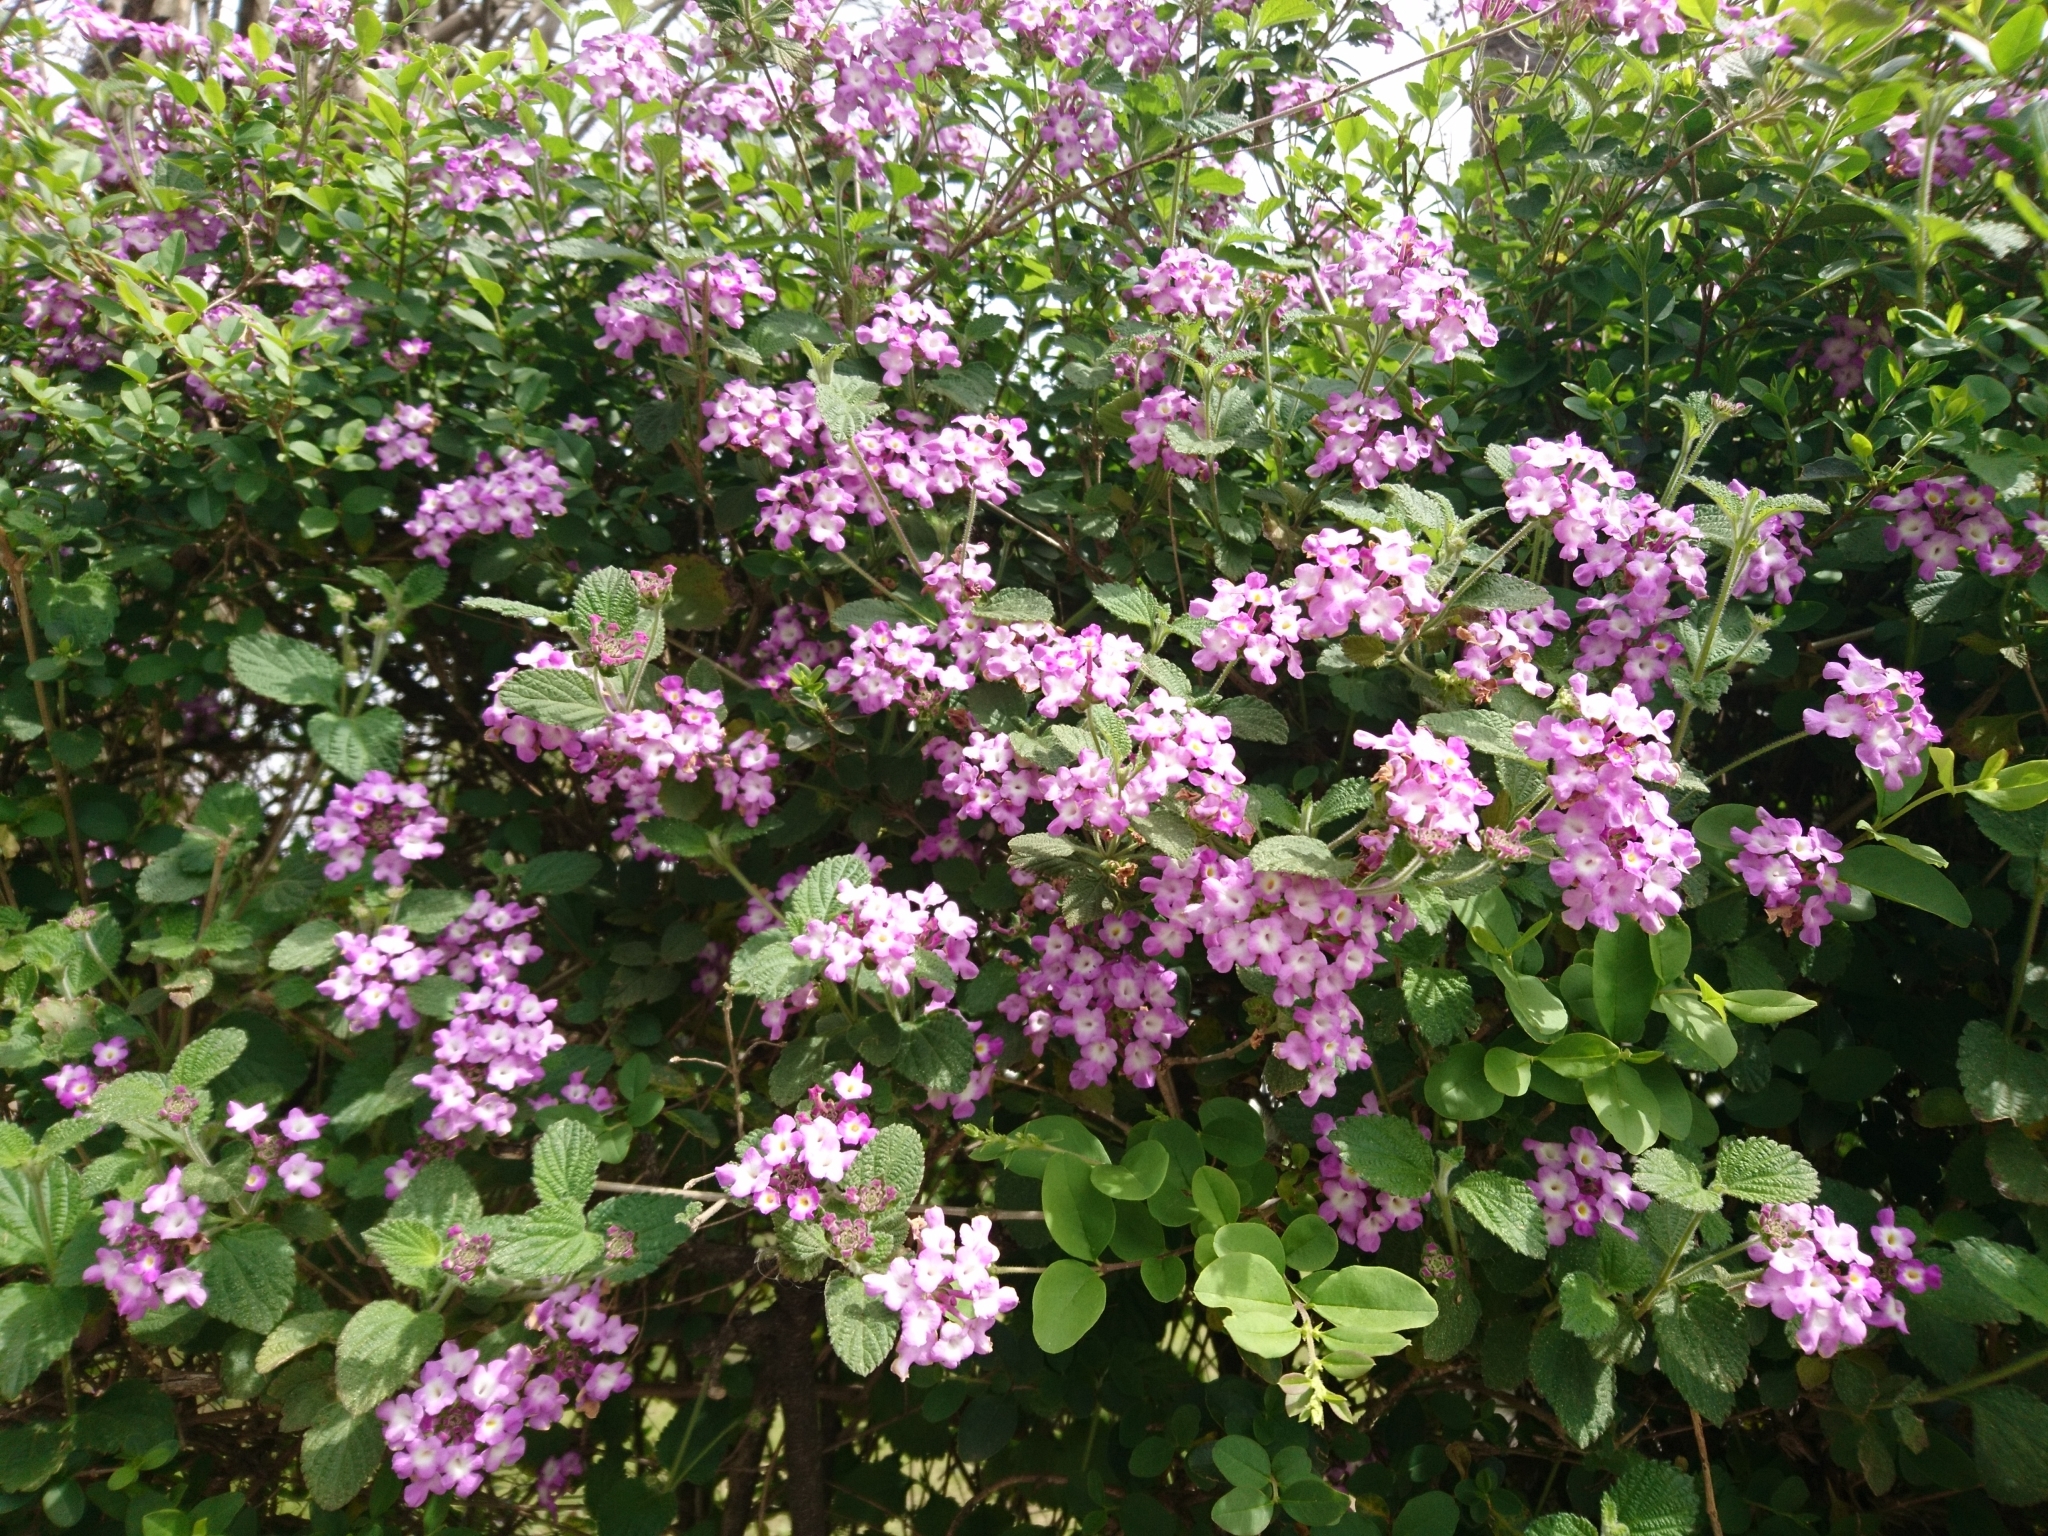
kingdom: Plantae
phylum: Tracheophyta
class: Magnoliopsida
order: Lamiales
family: Verbenaceae
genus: Lantana
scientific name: Lantana megapotamica
